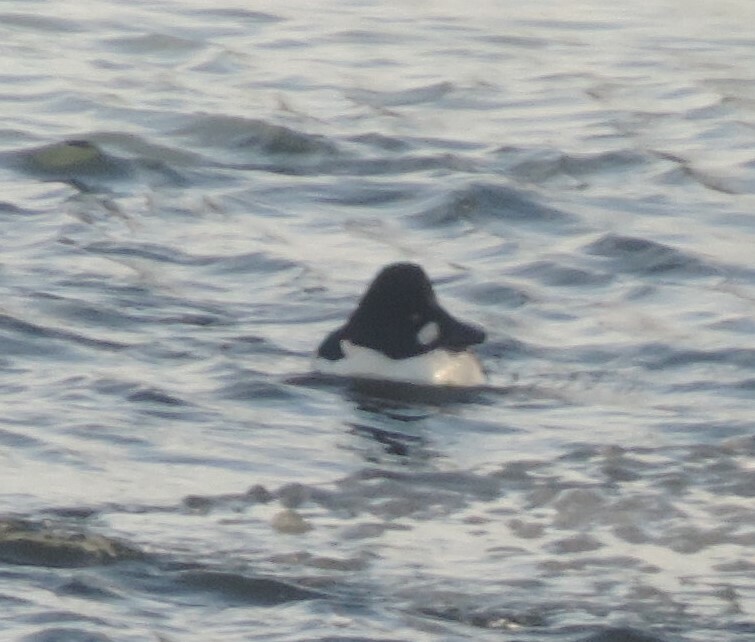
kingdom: Animalia
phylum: Chordata
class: Aves
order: Anseriformes
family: Anatidae
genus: Bucephala
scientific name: Bucephala clangula
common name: Common goldeneye
